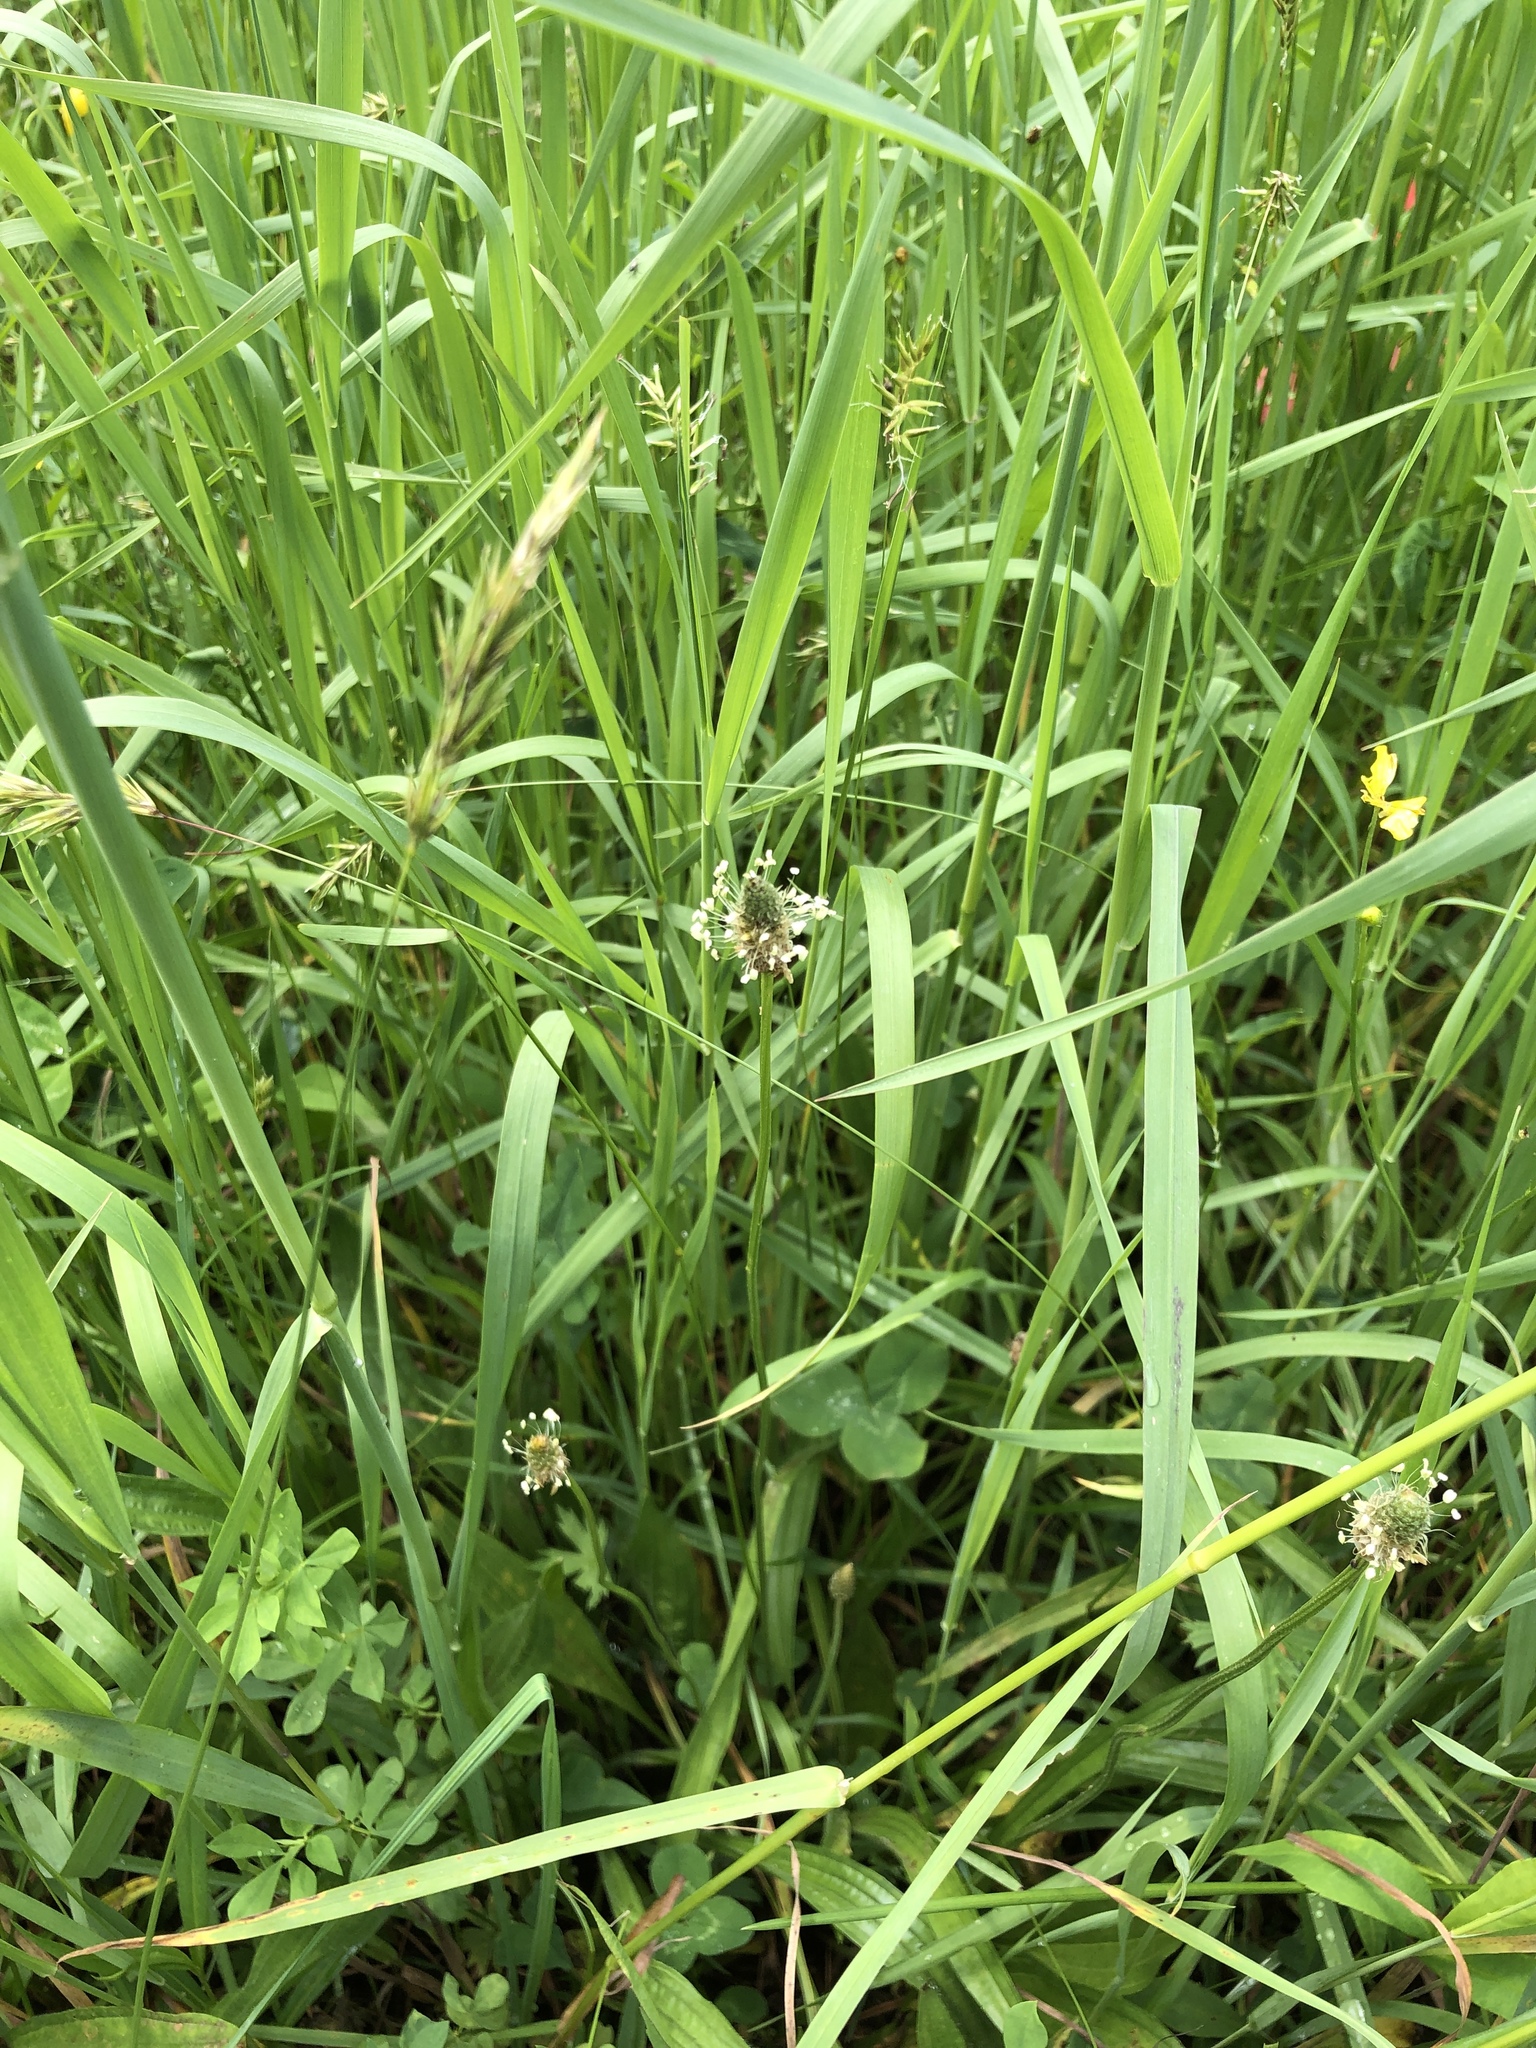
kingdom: Plantae
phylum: Tracheophyta
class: Magnoliopsida
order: Lamiales
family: Plantaginaceae
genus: Plantago
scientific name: Plantago lanceolata
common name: Ribwort plantain
